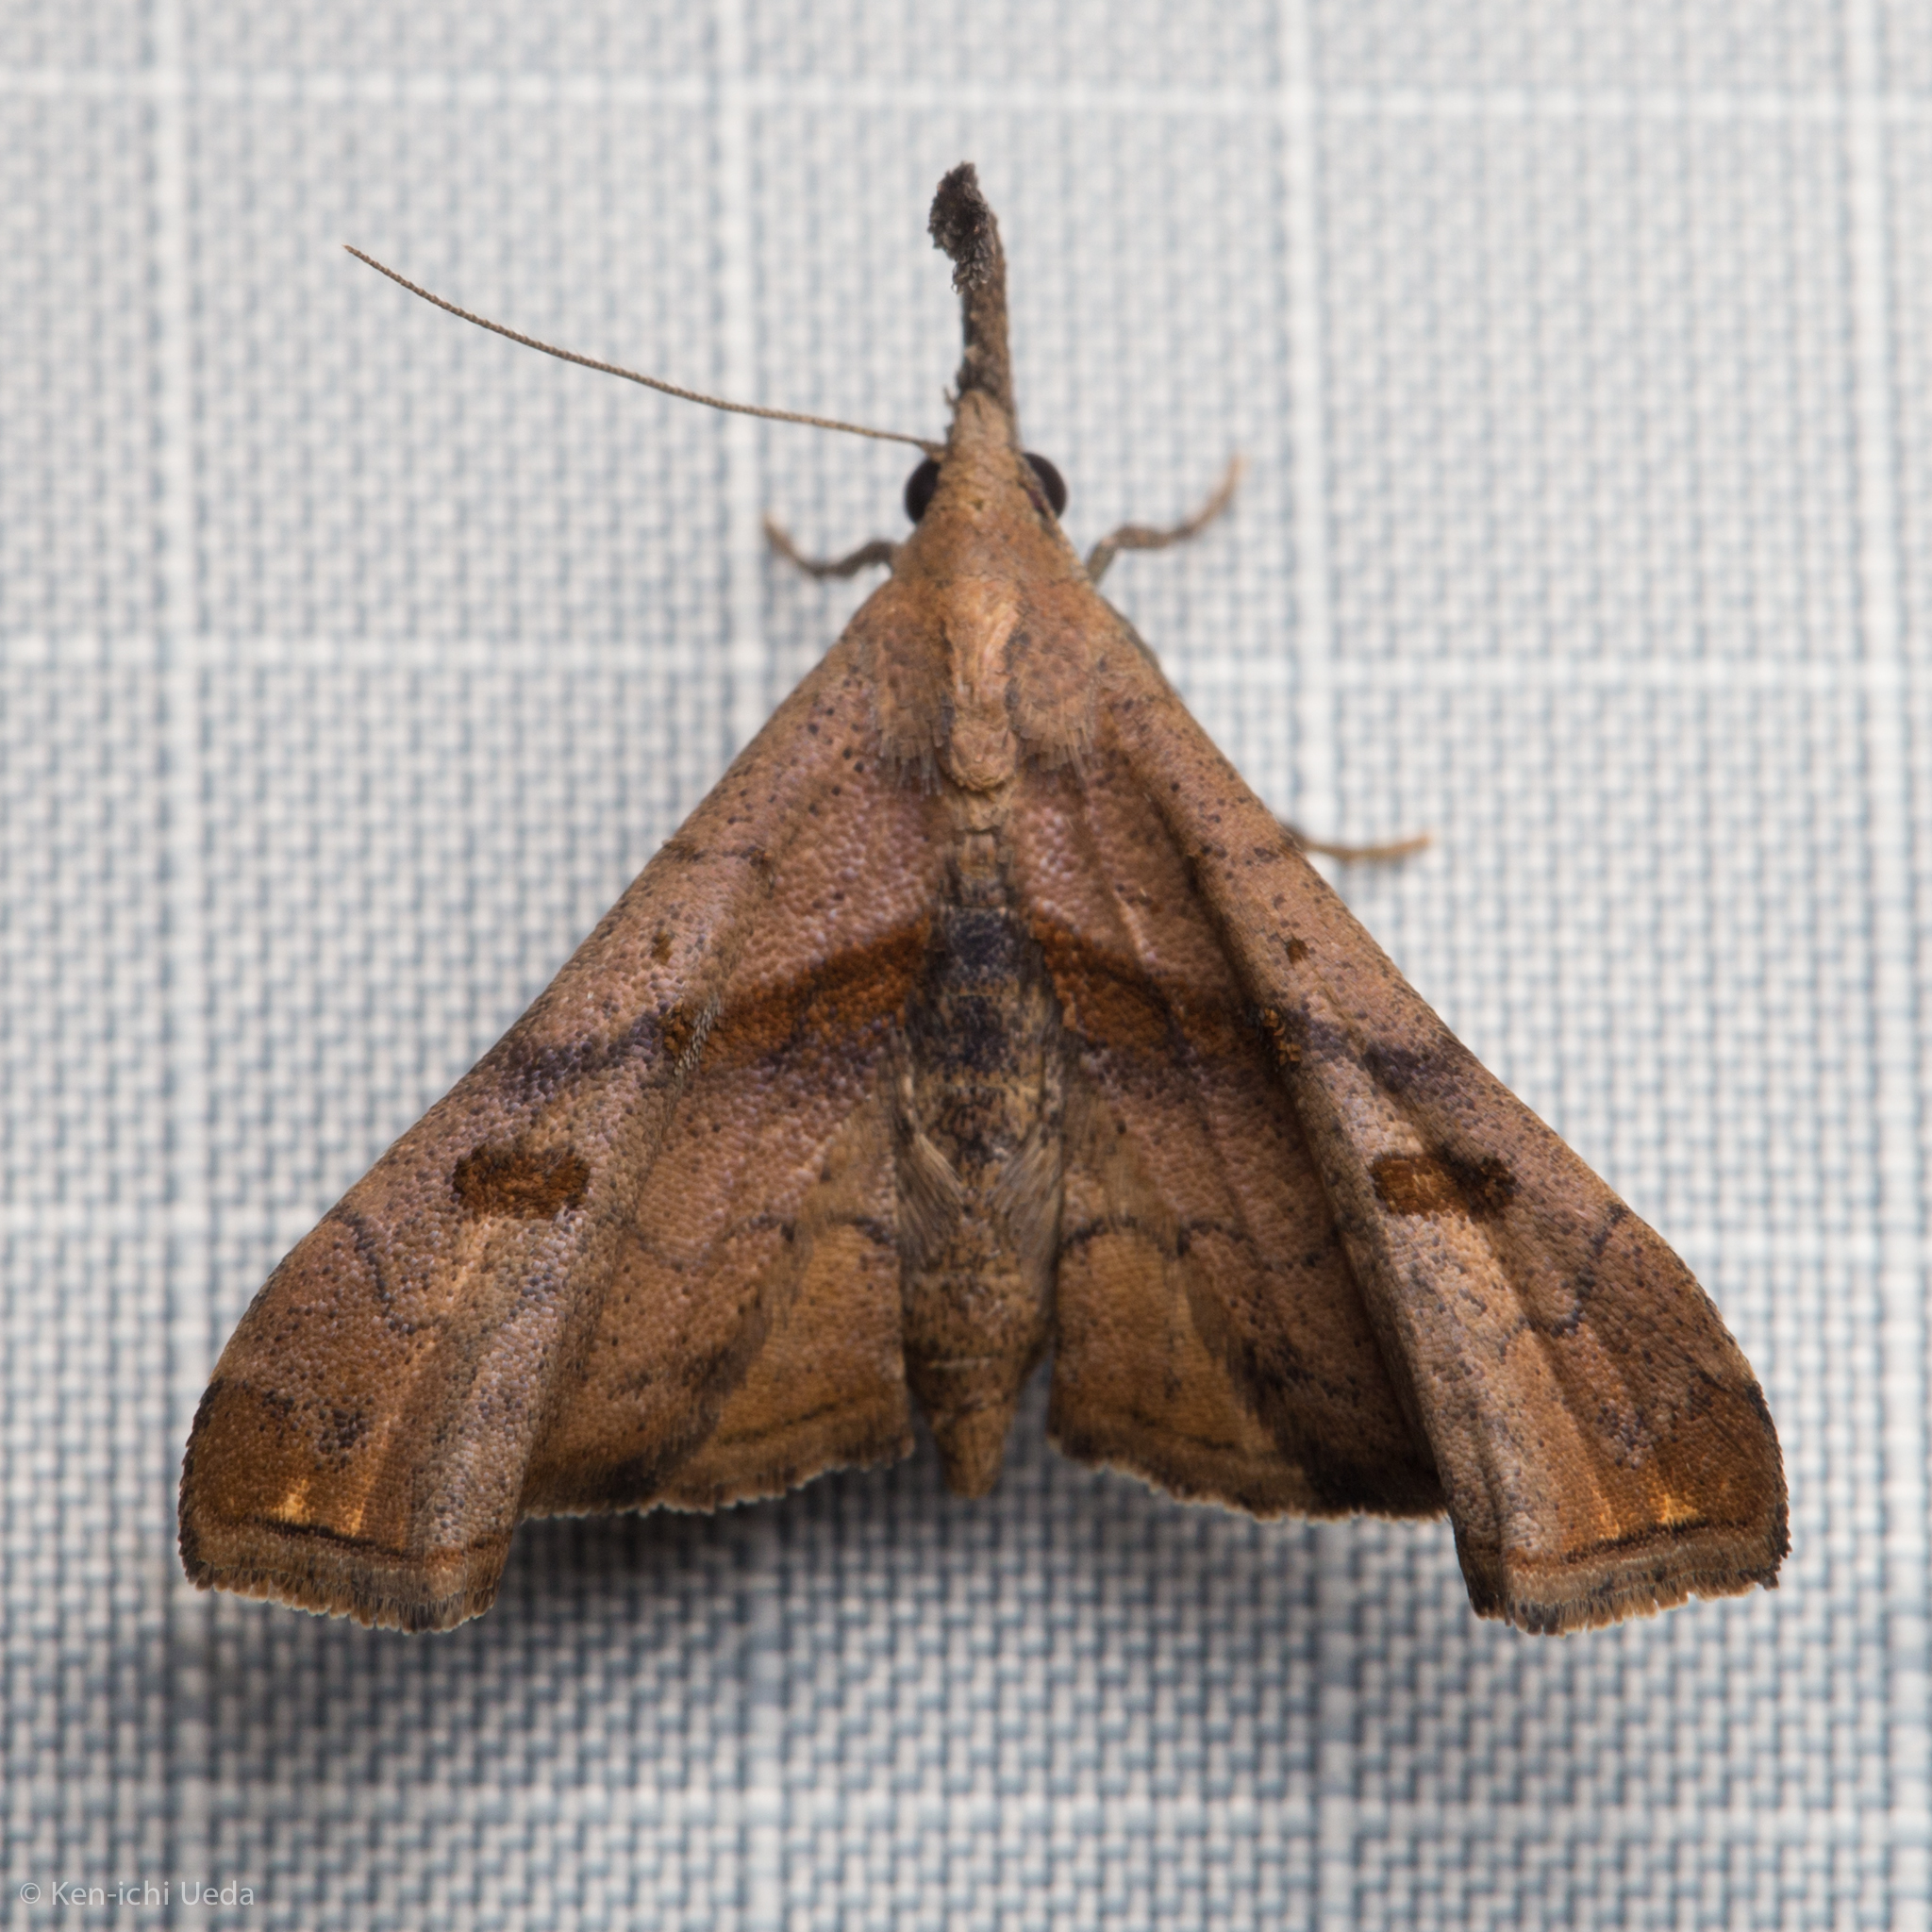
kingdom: Animalia
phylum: Arthropoda
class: Insecta
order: Lepidoptera
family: Erebidae
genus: Palthis
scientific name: Palthis angulalis
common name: Dark-spotted palthis moth
